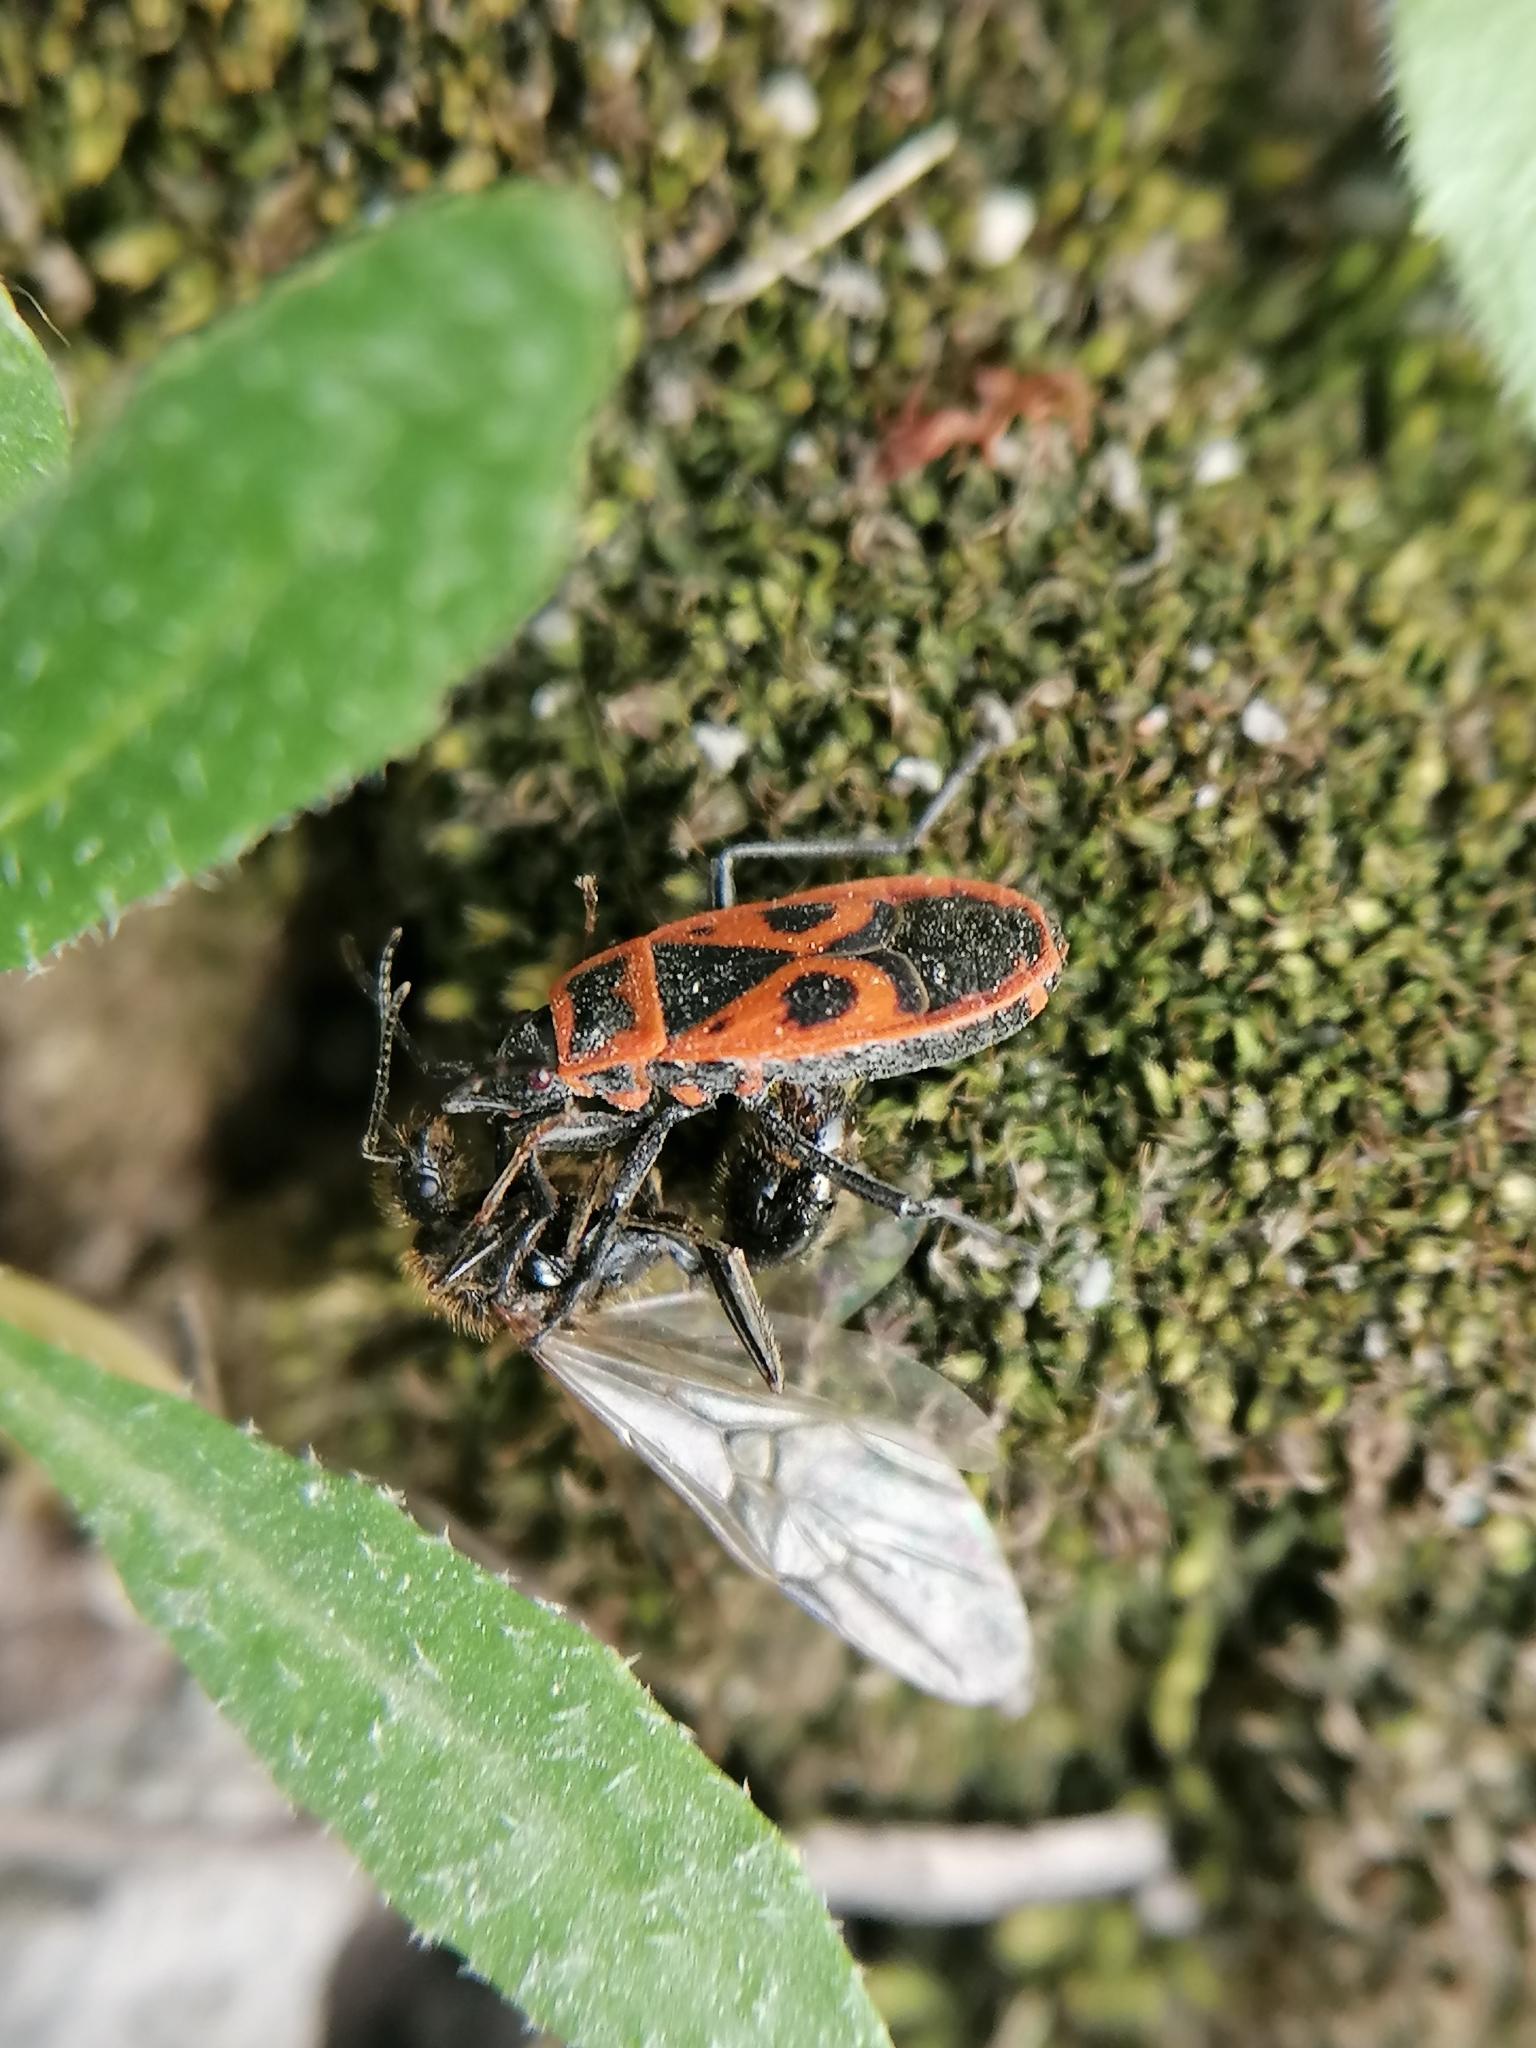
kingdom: Animalia
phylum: Arthropoda
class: Insecta
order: Hemiptera
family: Pyrrhocoridae
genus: Pyrrhocoris
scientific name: Pyrrhocoris apterus
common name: Firebug
